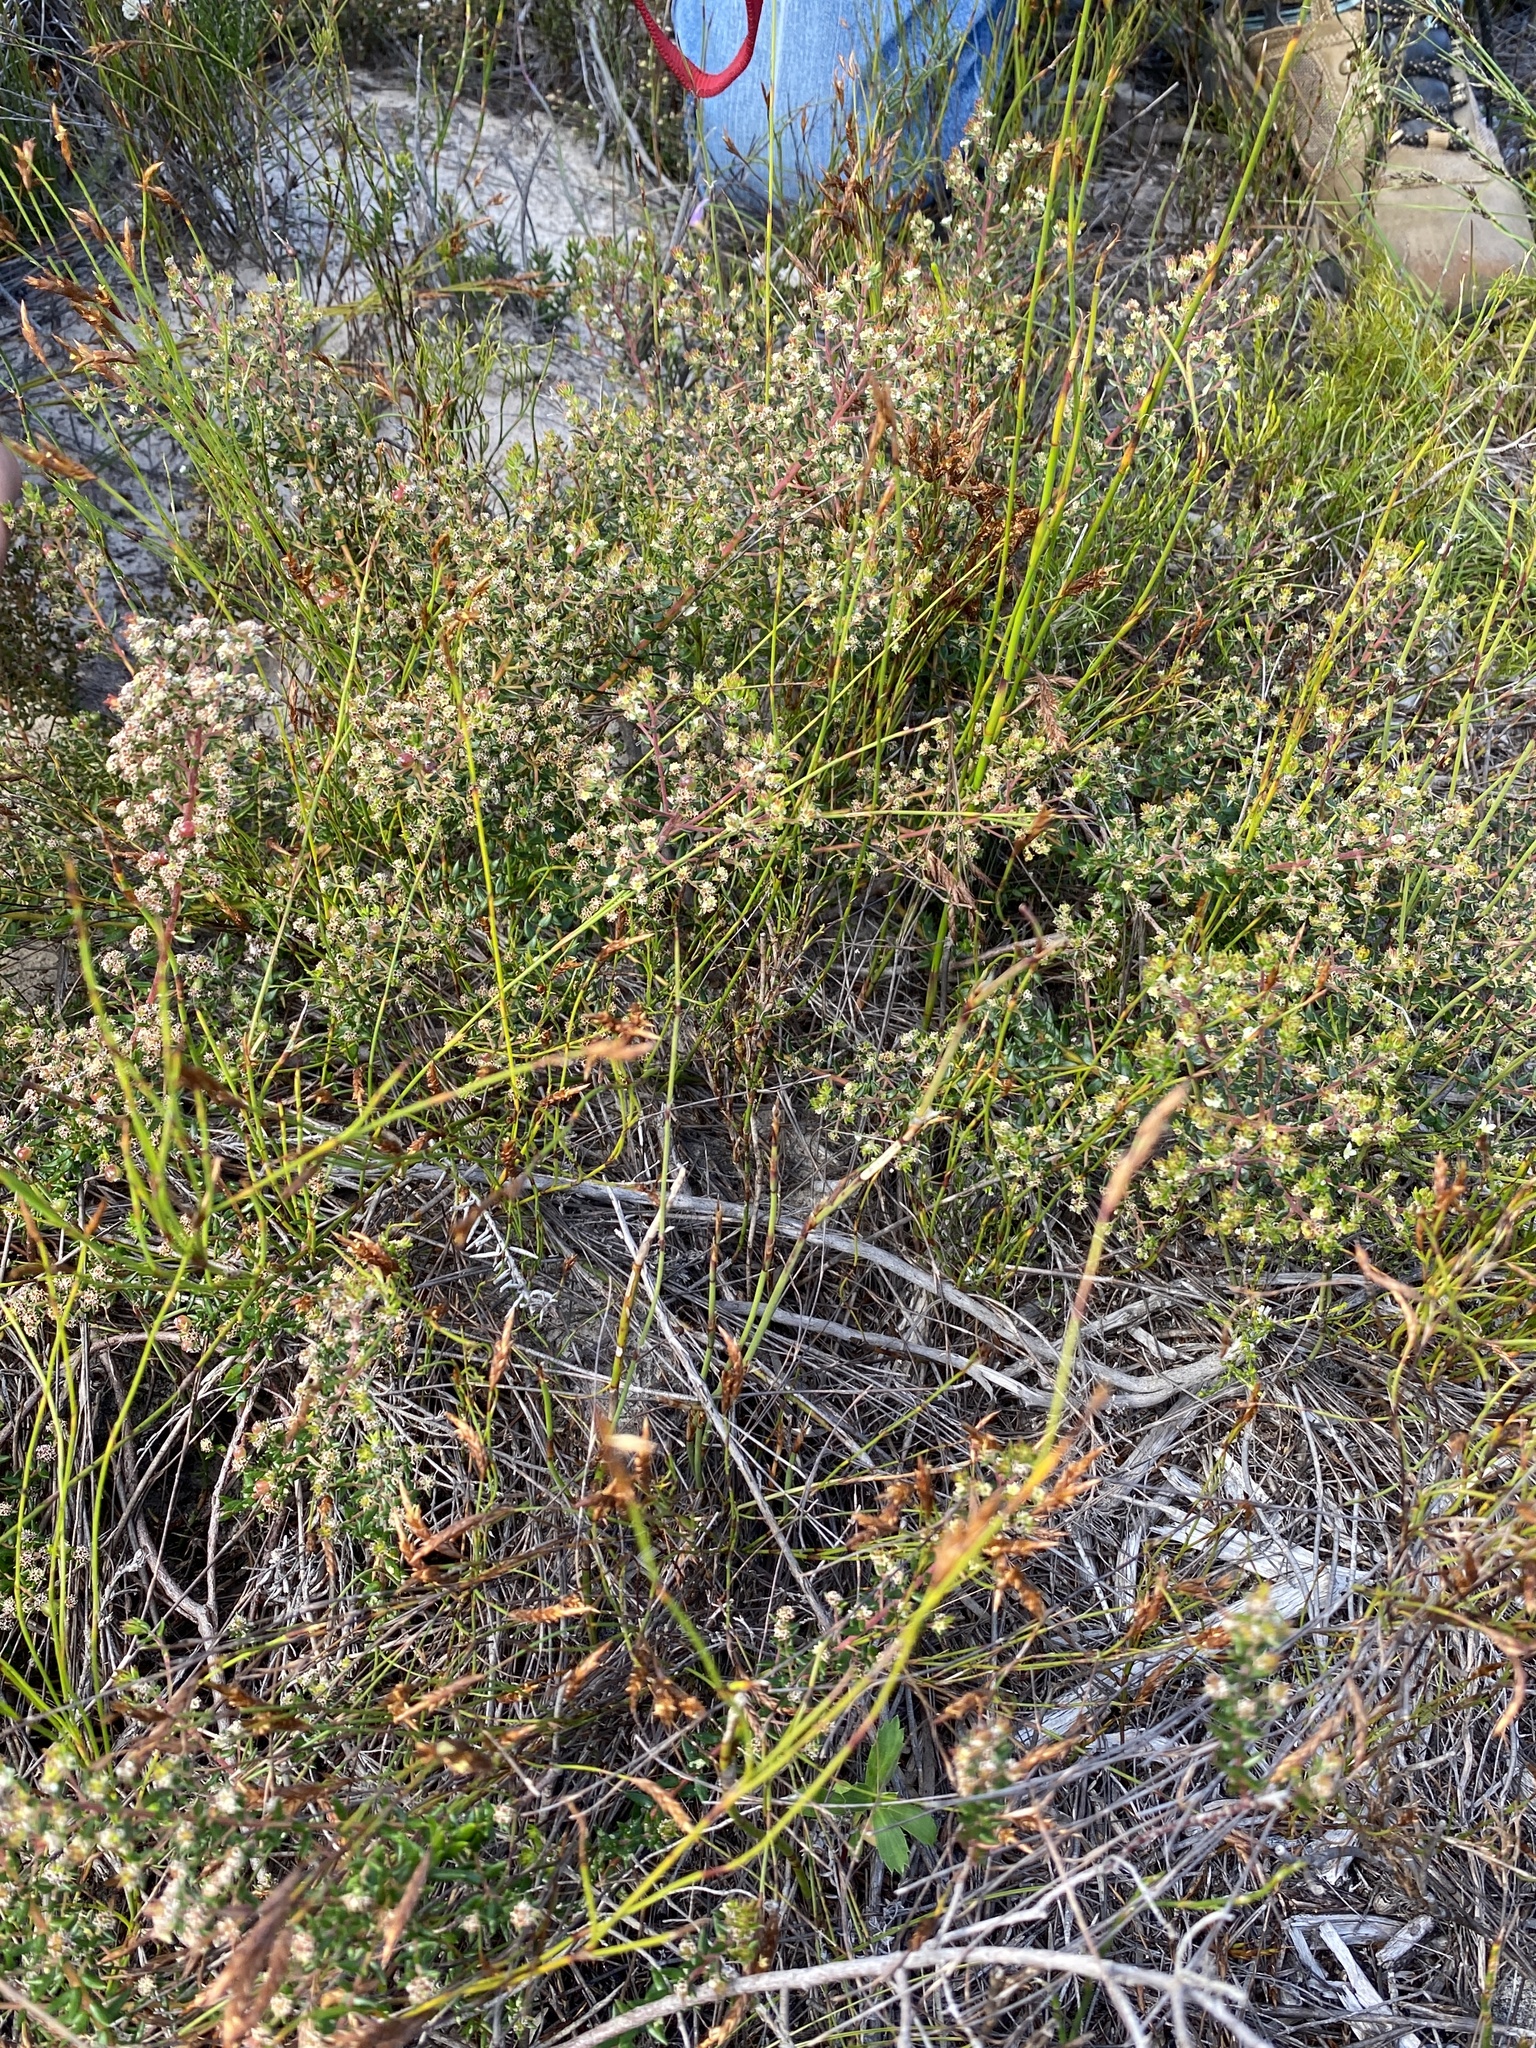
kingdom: Plantae
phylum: Tracheophyta
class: Magnoliopsida
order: Rosales
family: Rhamnaceae
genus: Phylica
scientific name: Phylica parviflora
